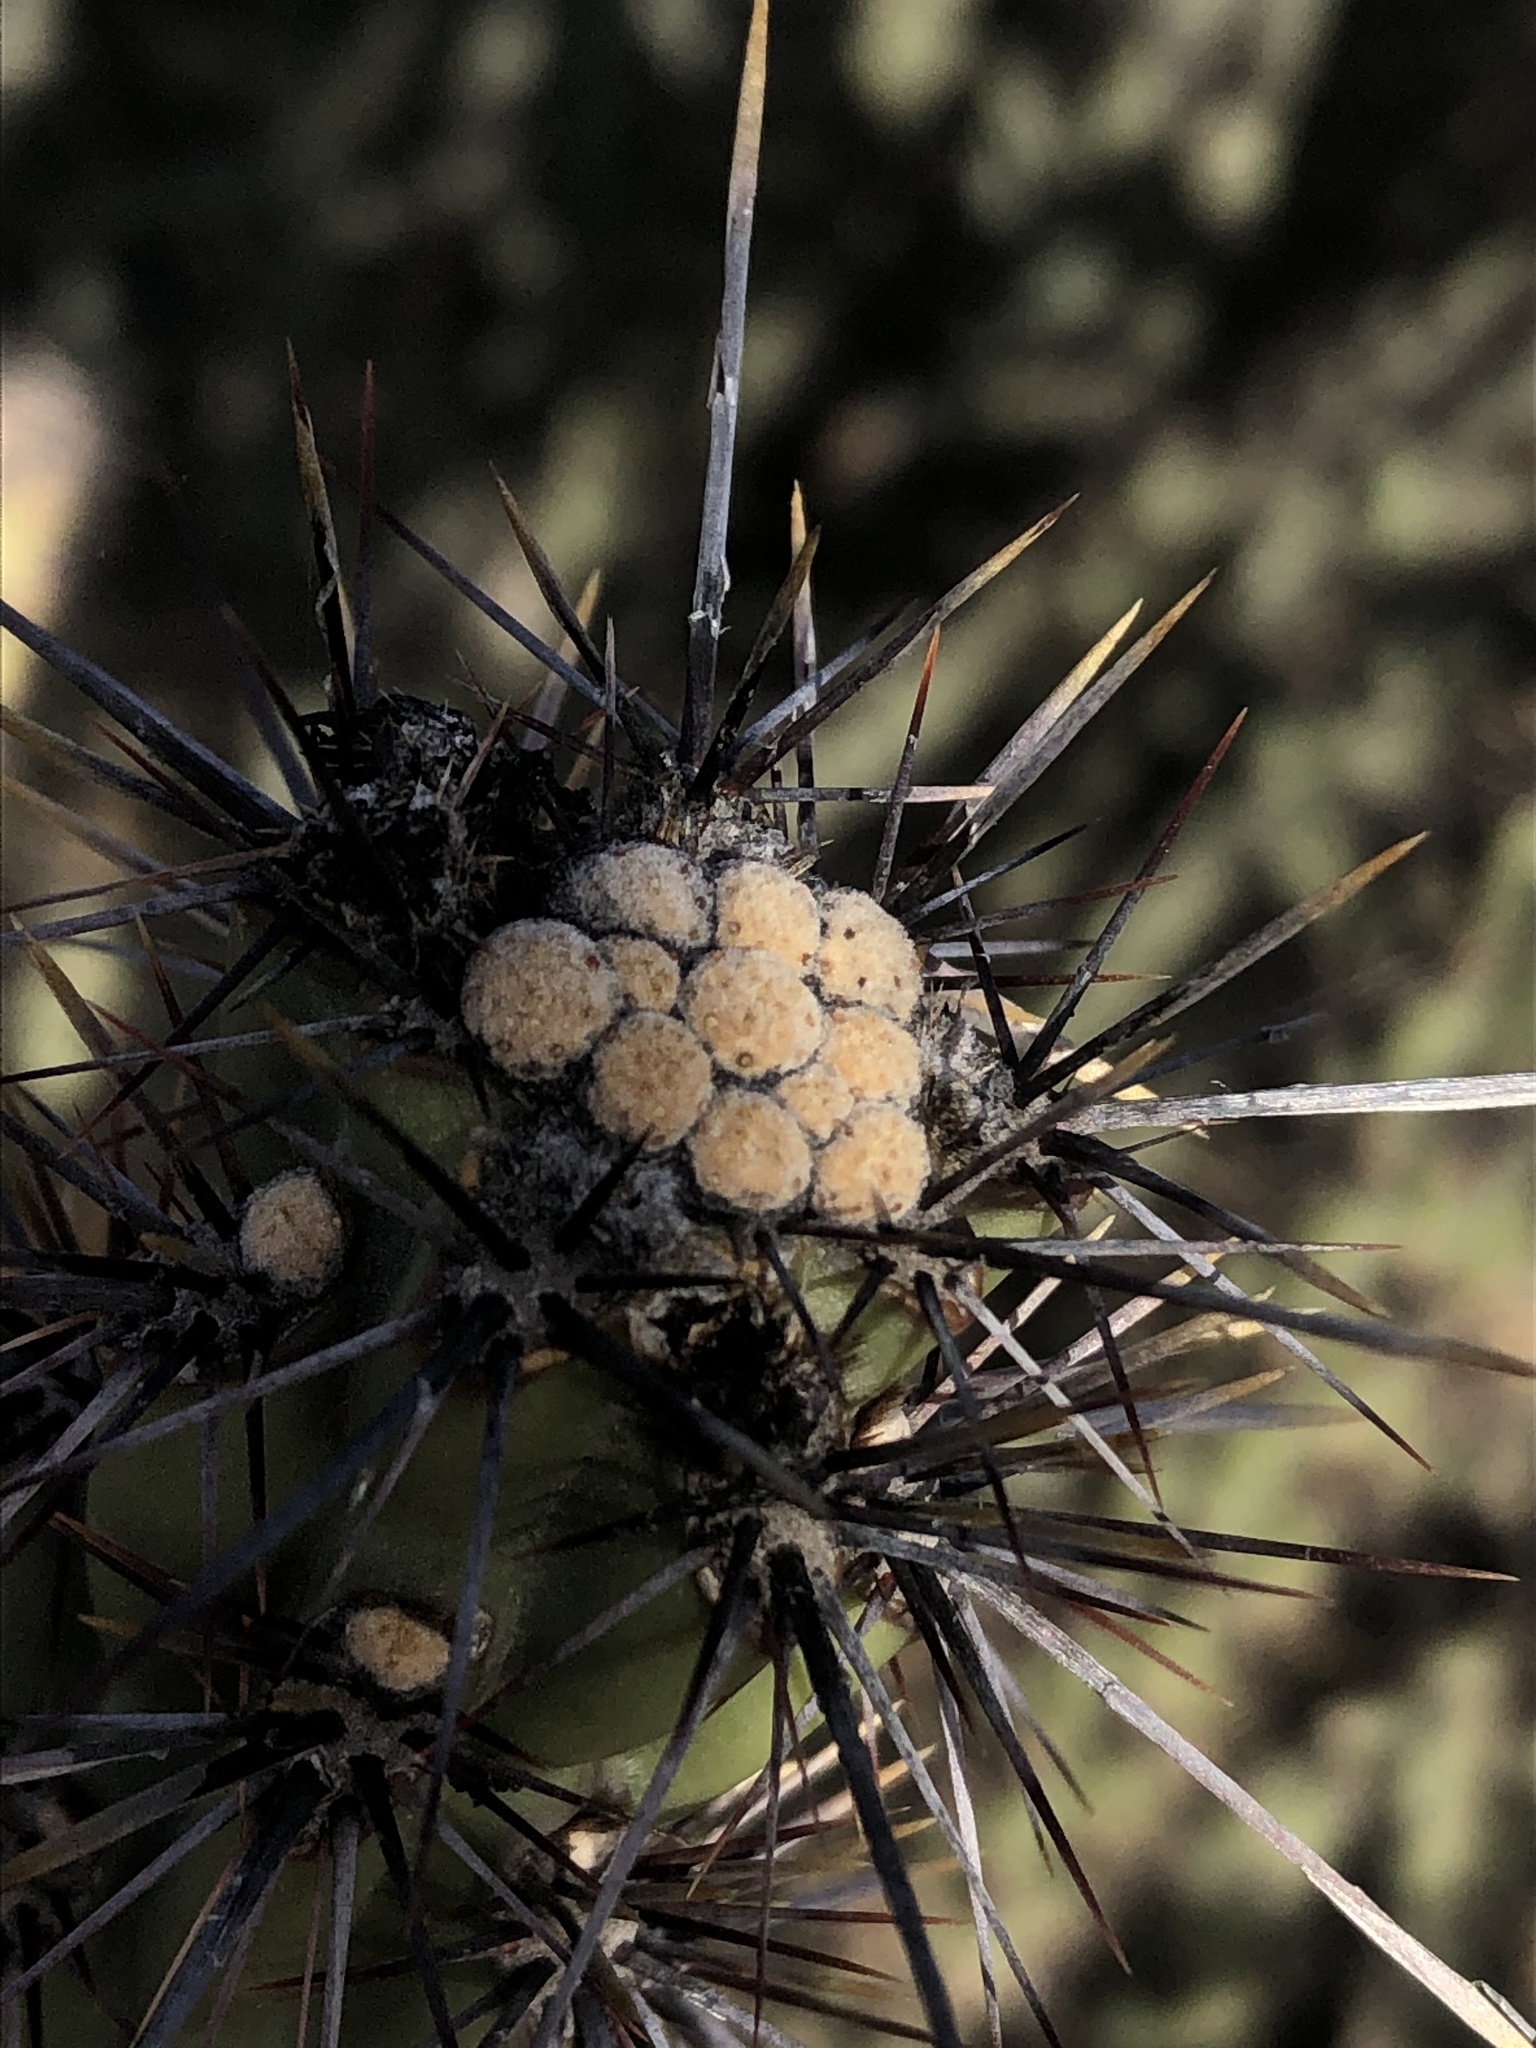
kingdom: Plantae
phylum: Tracheophyta
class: Magnoliopsida
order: Caryophyllales
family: Cactaceae
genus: Cylindropuntia
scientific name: Cylindropuntia acanthocarpa
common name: Buckhorn cholla
